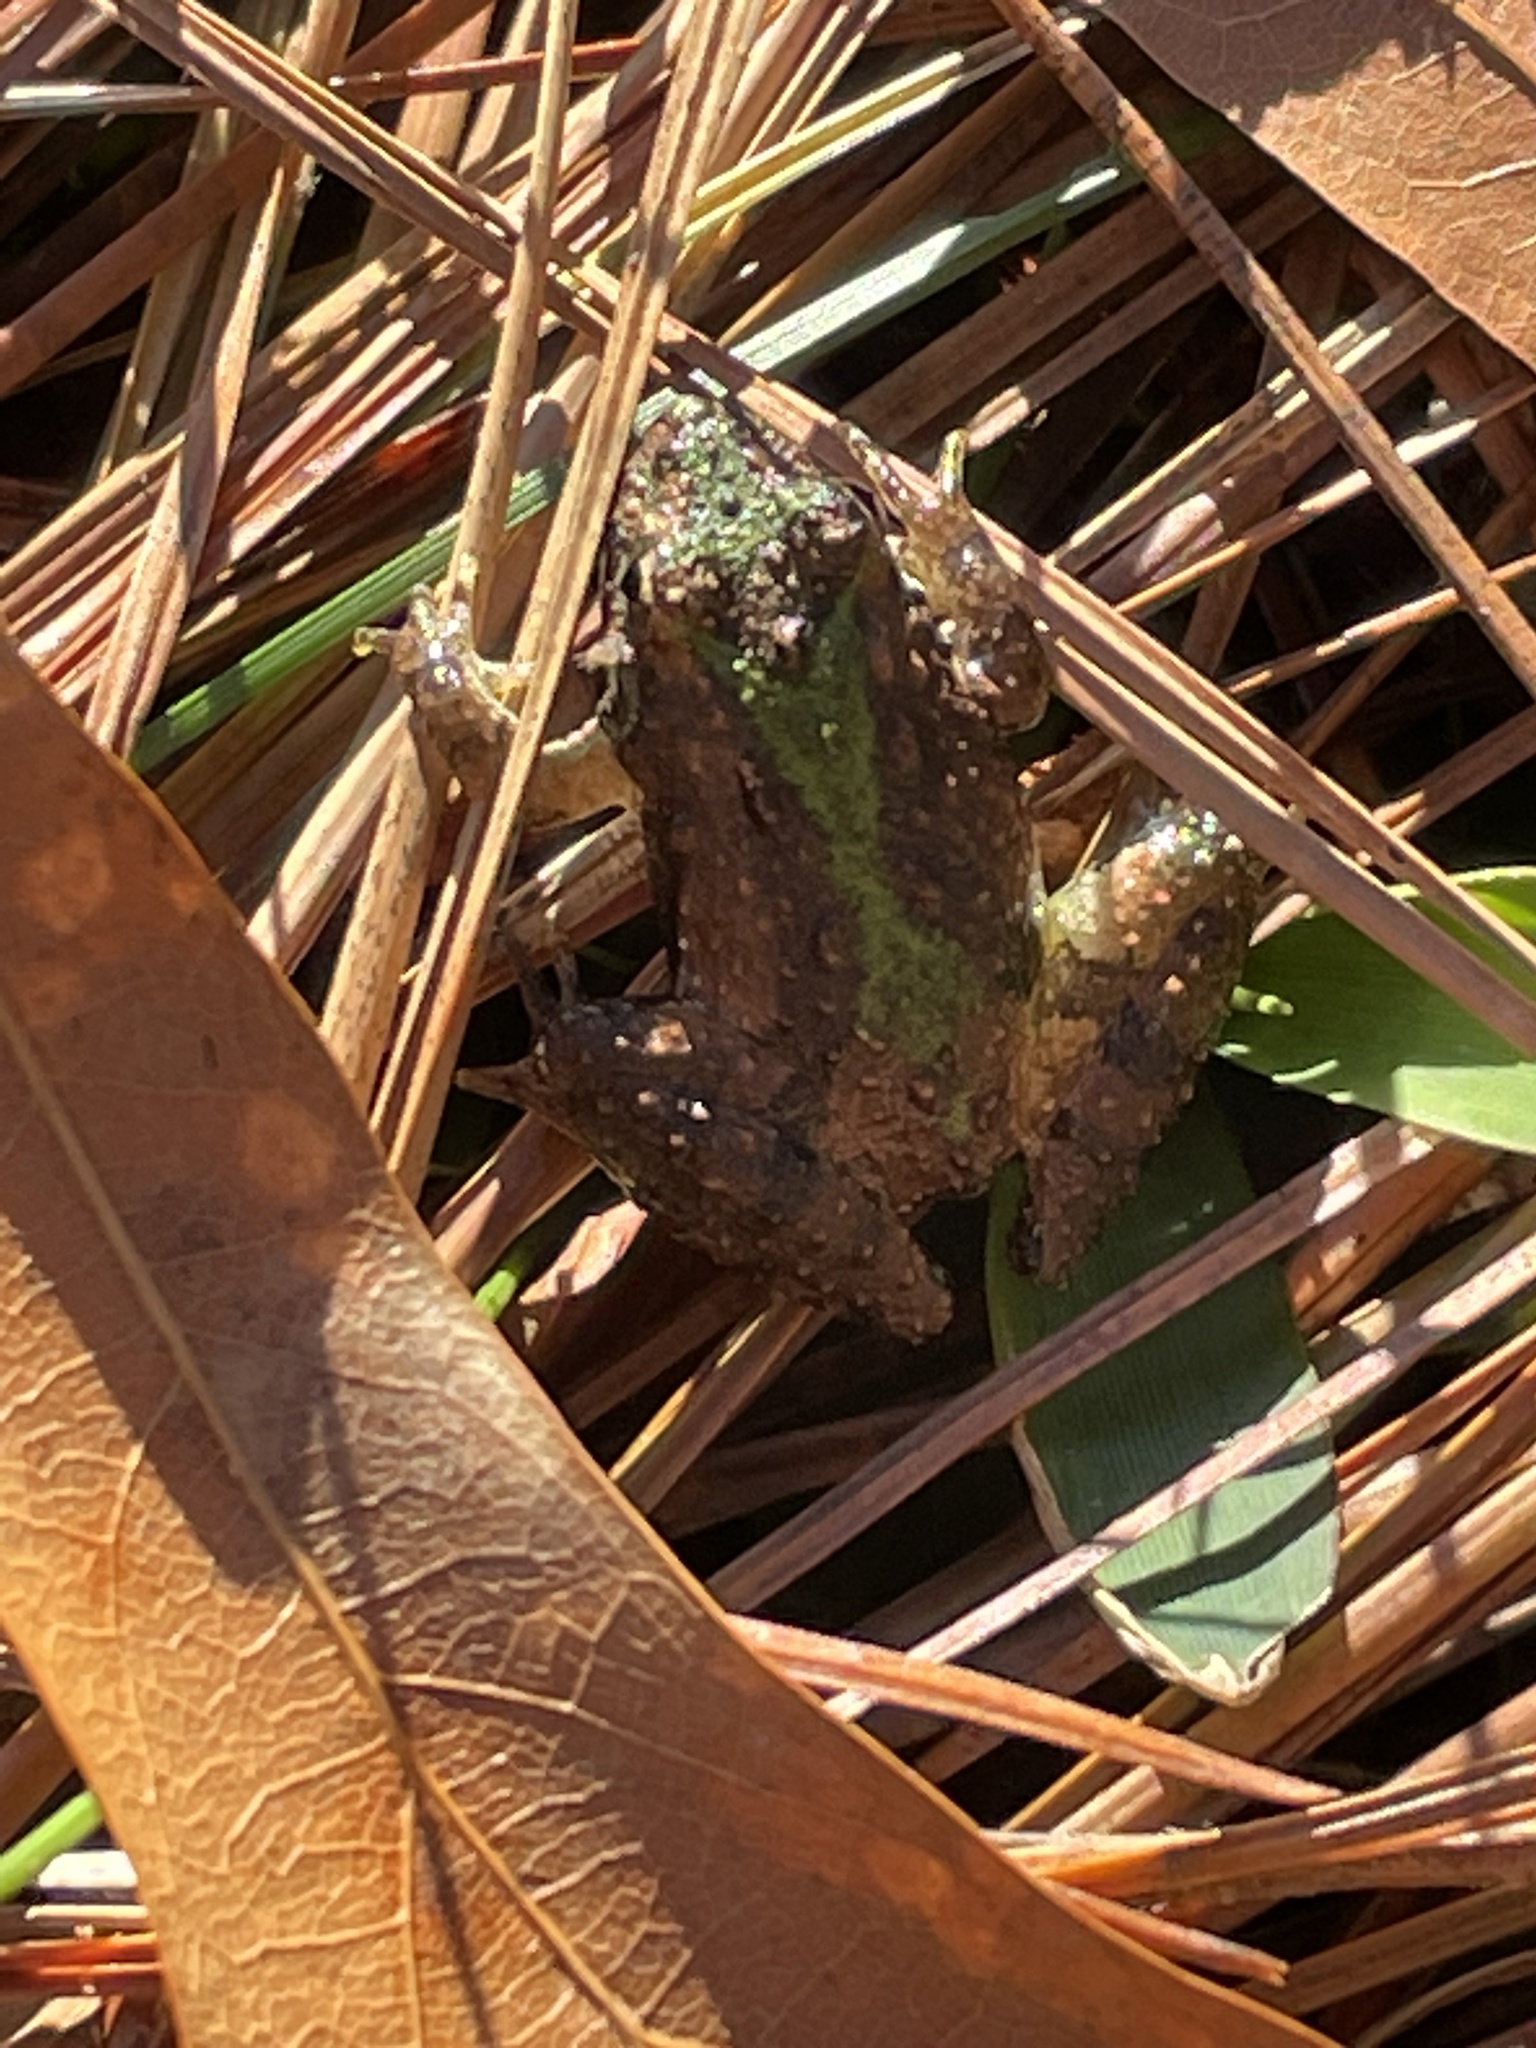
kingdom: Animalia
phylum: Chordata
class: Amphibia
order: Anura
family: Hylidae
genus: Acris
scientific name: Acris crepitans
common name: Northern cricket frog
